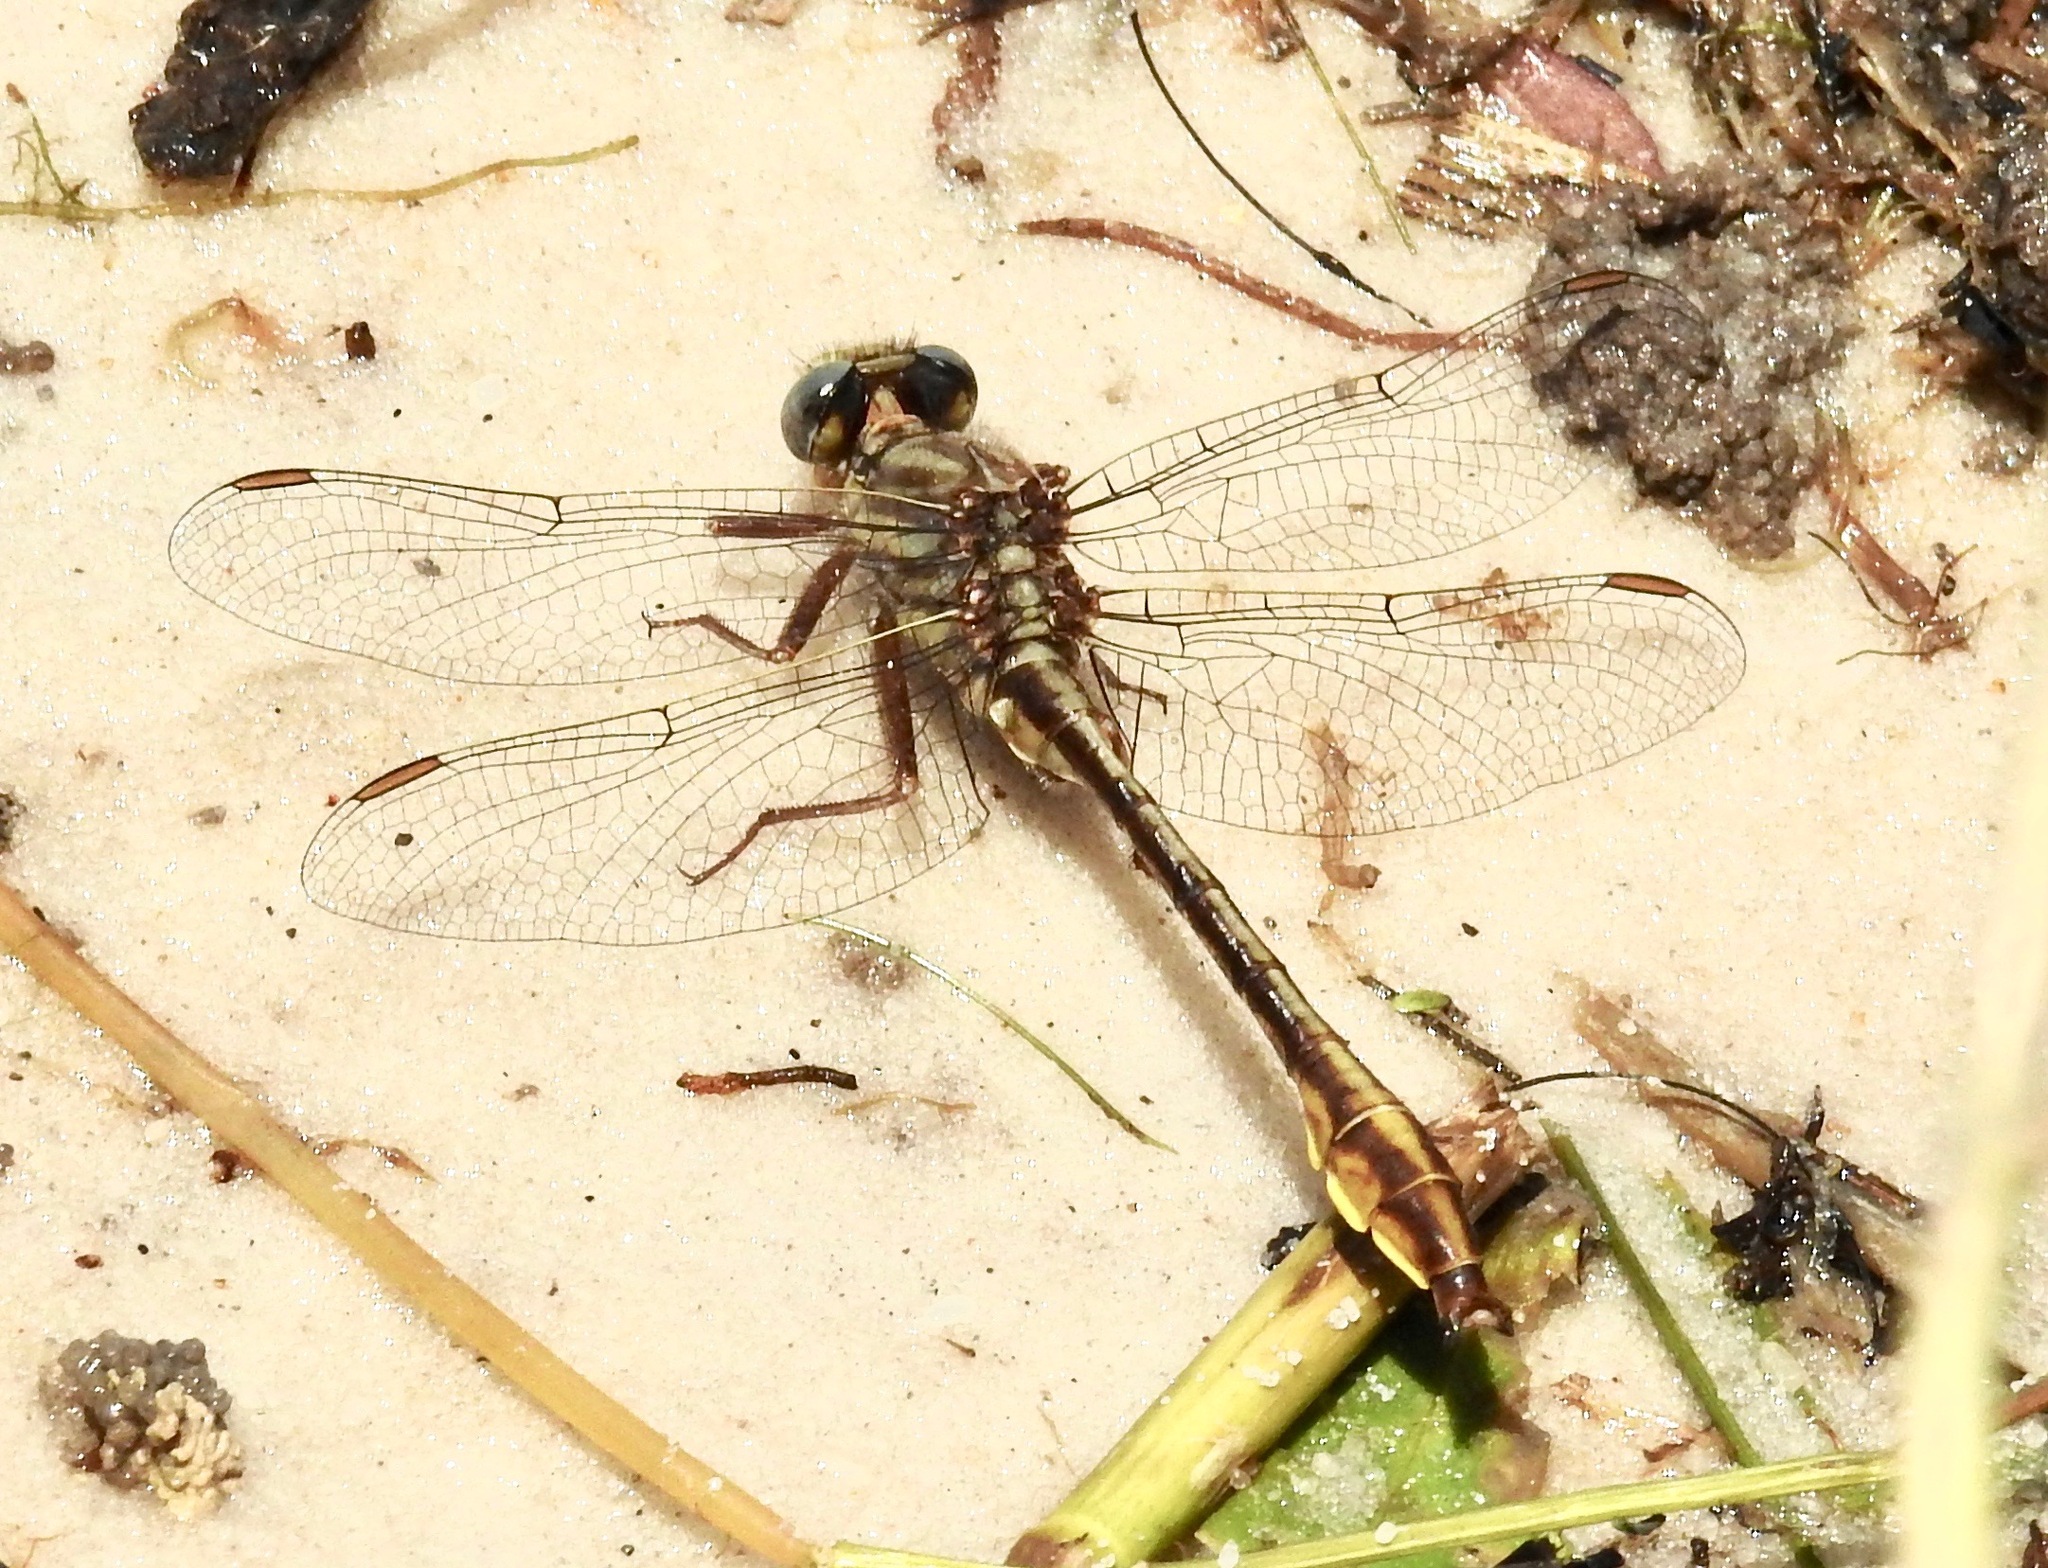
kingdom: Animalia
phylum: Arthropoda
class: Insecta
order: Odonata
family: Gomphidae
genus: Phanogomphus
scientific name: Phanogomphus cavillaris
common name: Sandhill clubtail
